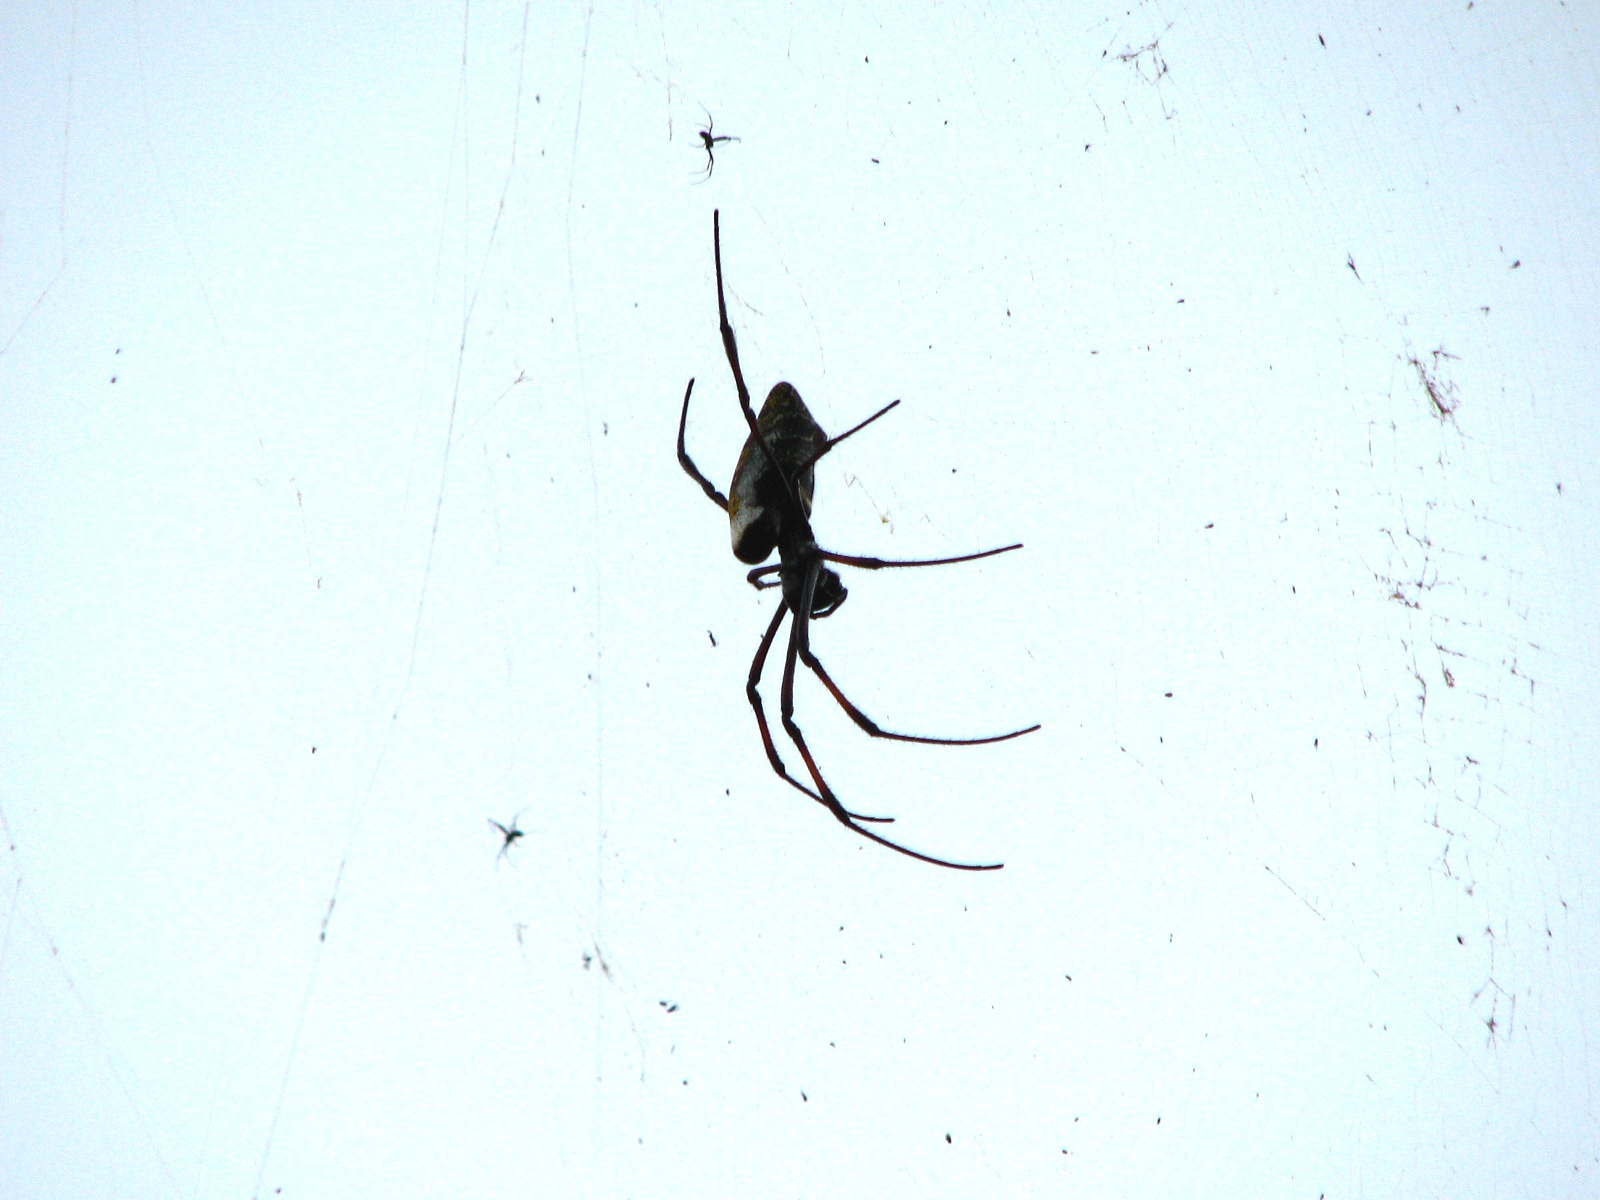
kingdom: Animalia
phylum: Arthropoda
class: Arachnida
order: Araneae
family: Araneidae
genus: Trichonephila
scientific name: Trichonephila inaurata
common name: Red-legged golden orb weaver
